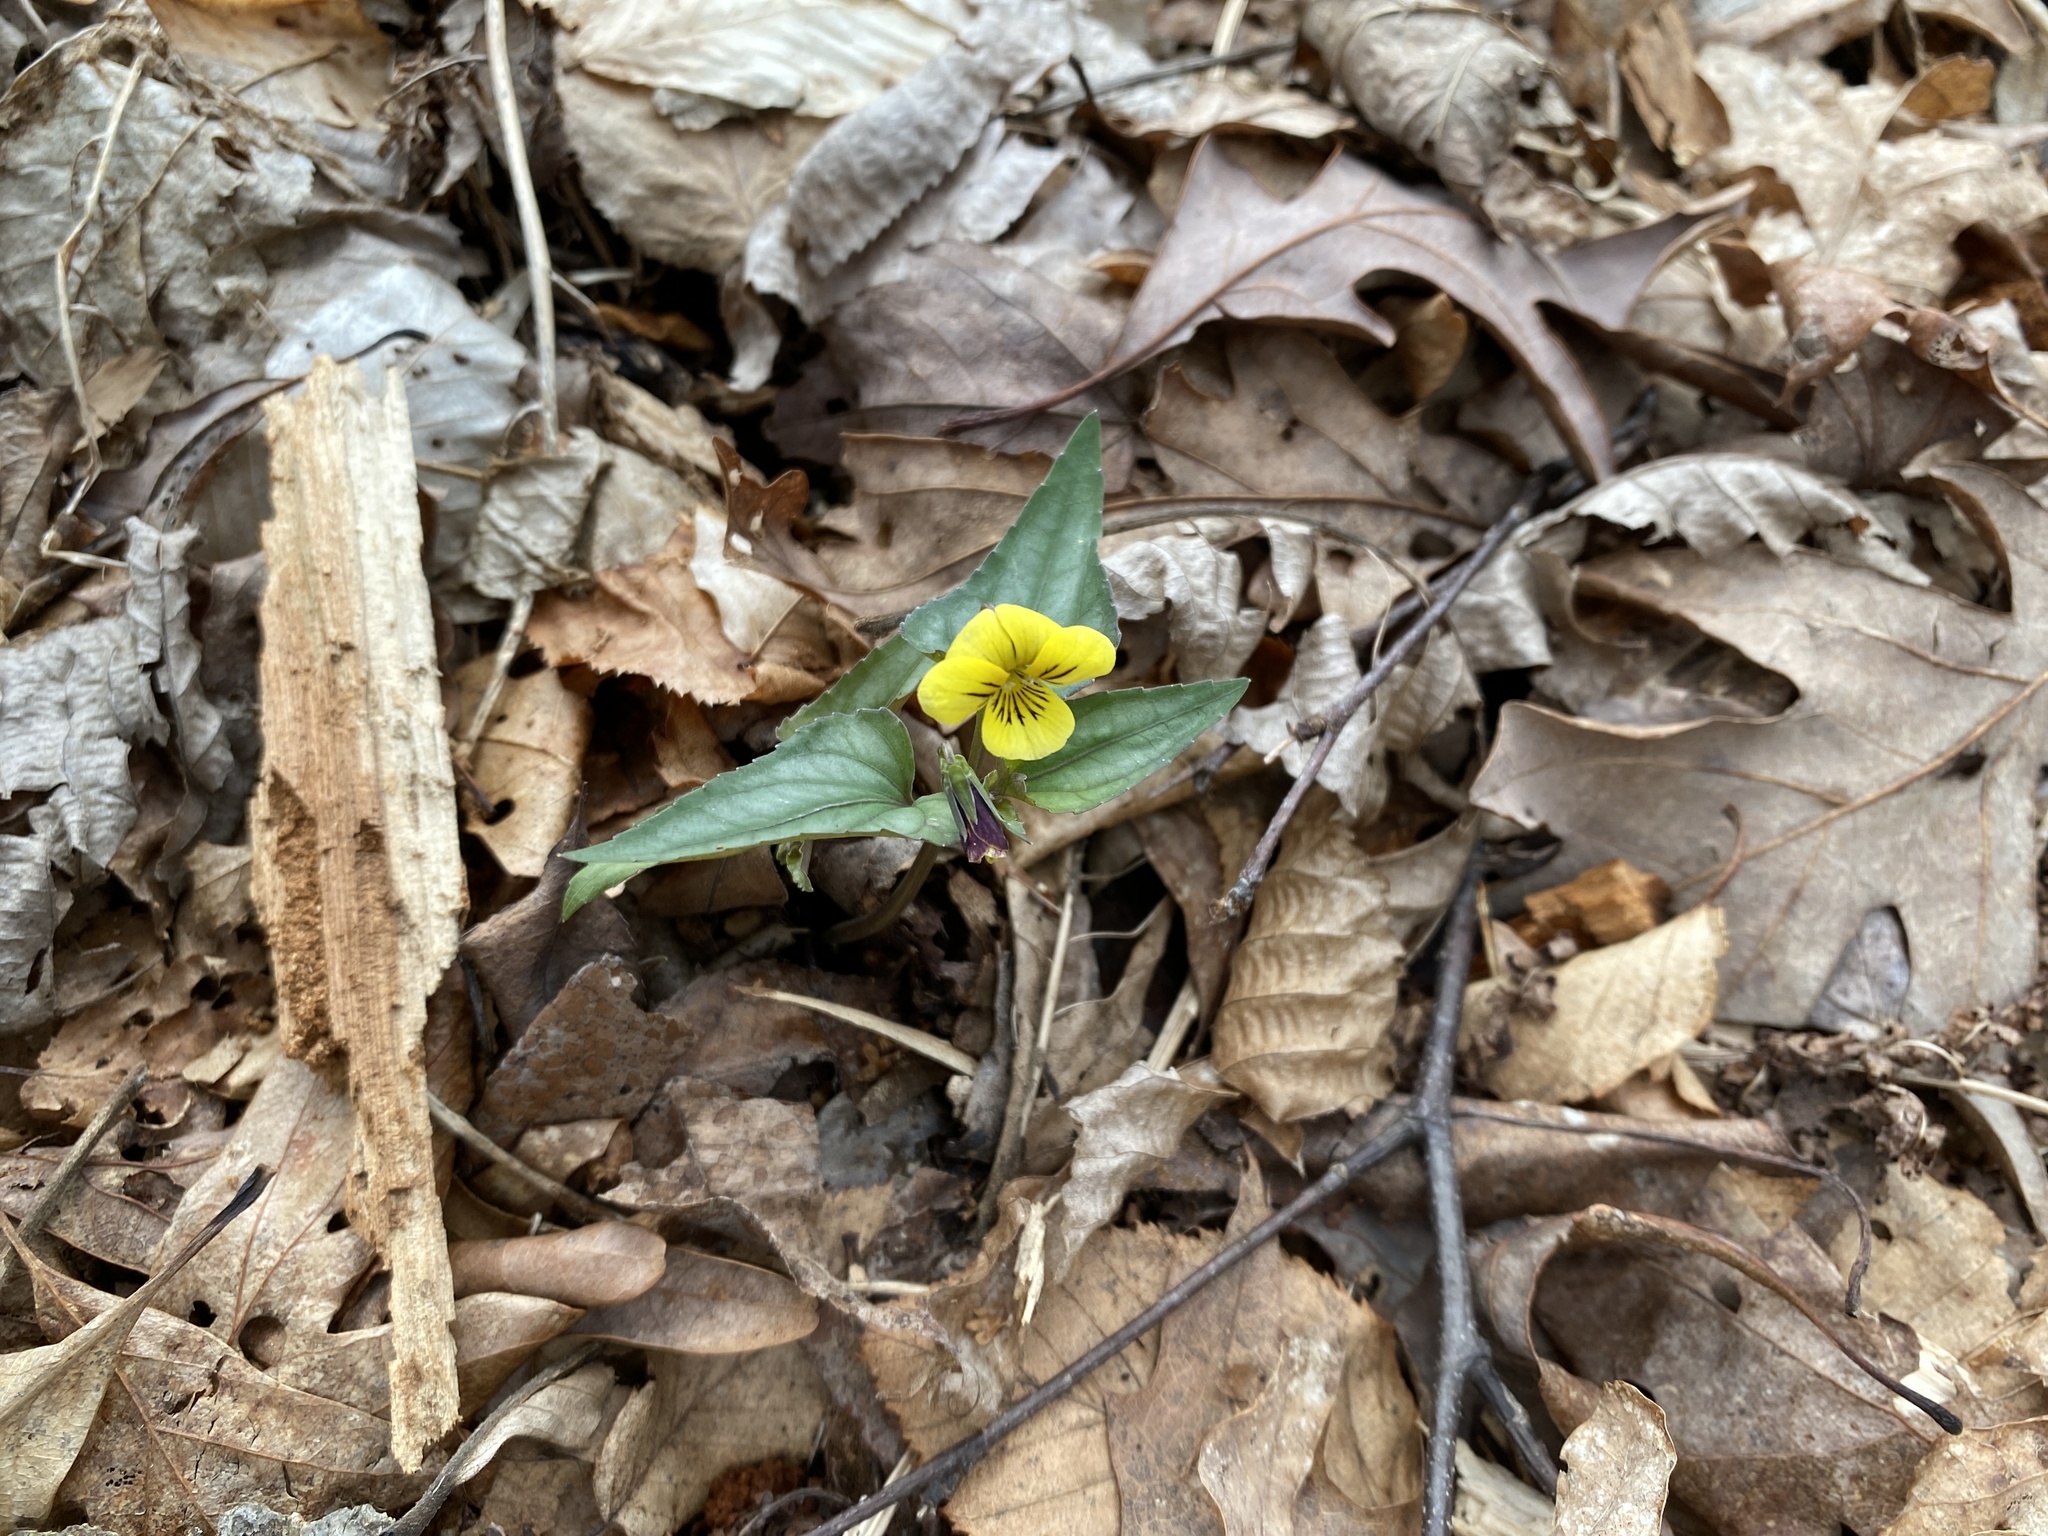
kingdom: Plantae
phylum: Tracheophyta
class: Magnoliopsida
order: Malpighiales
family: Violaceae
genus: Viola
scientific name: Viola hastata
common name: Spear-leaf violet
